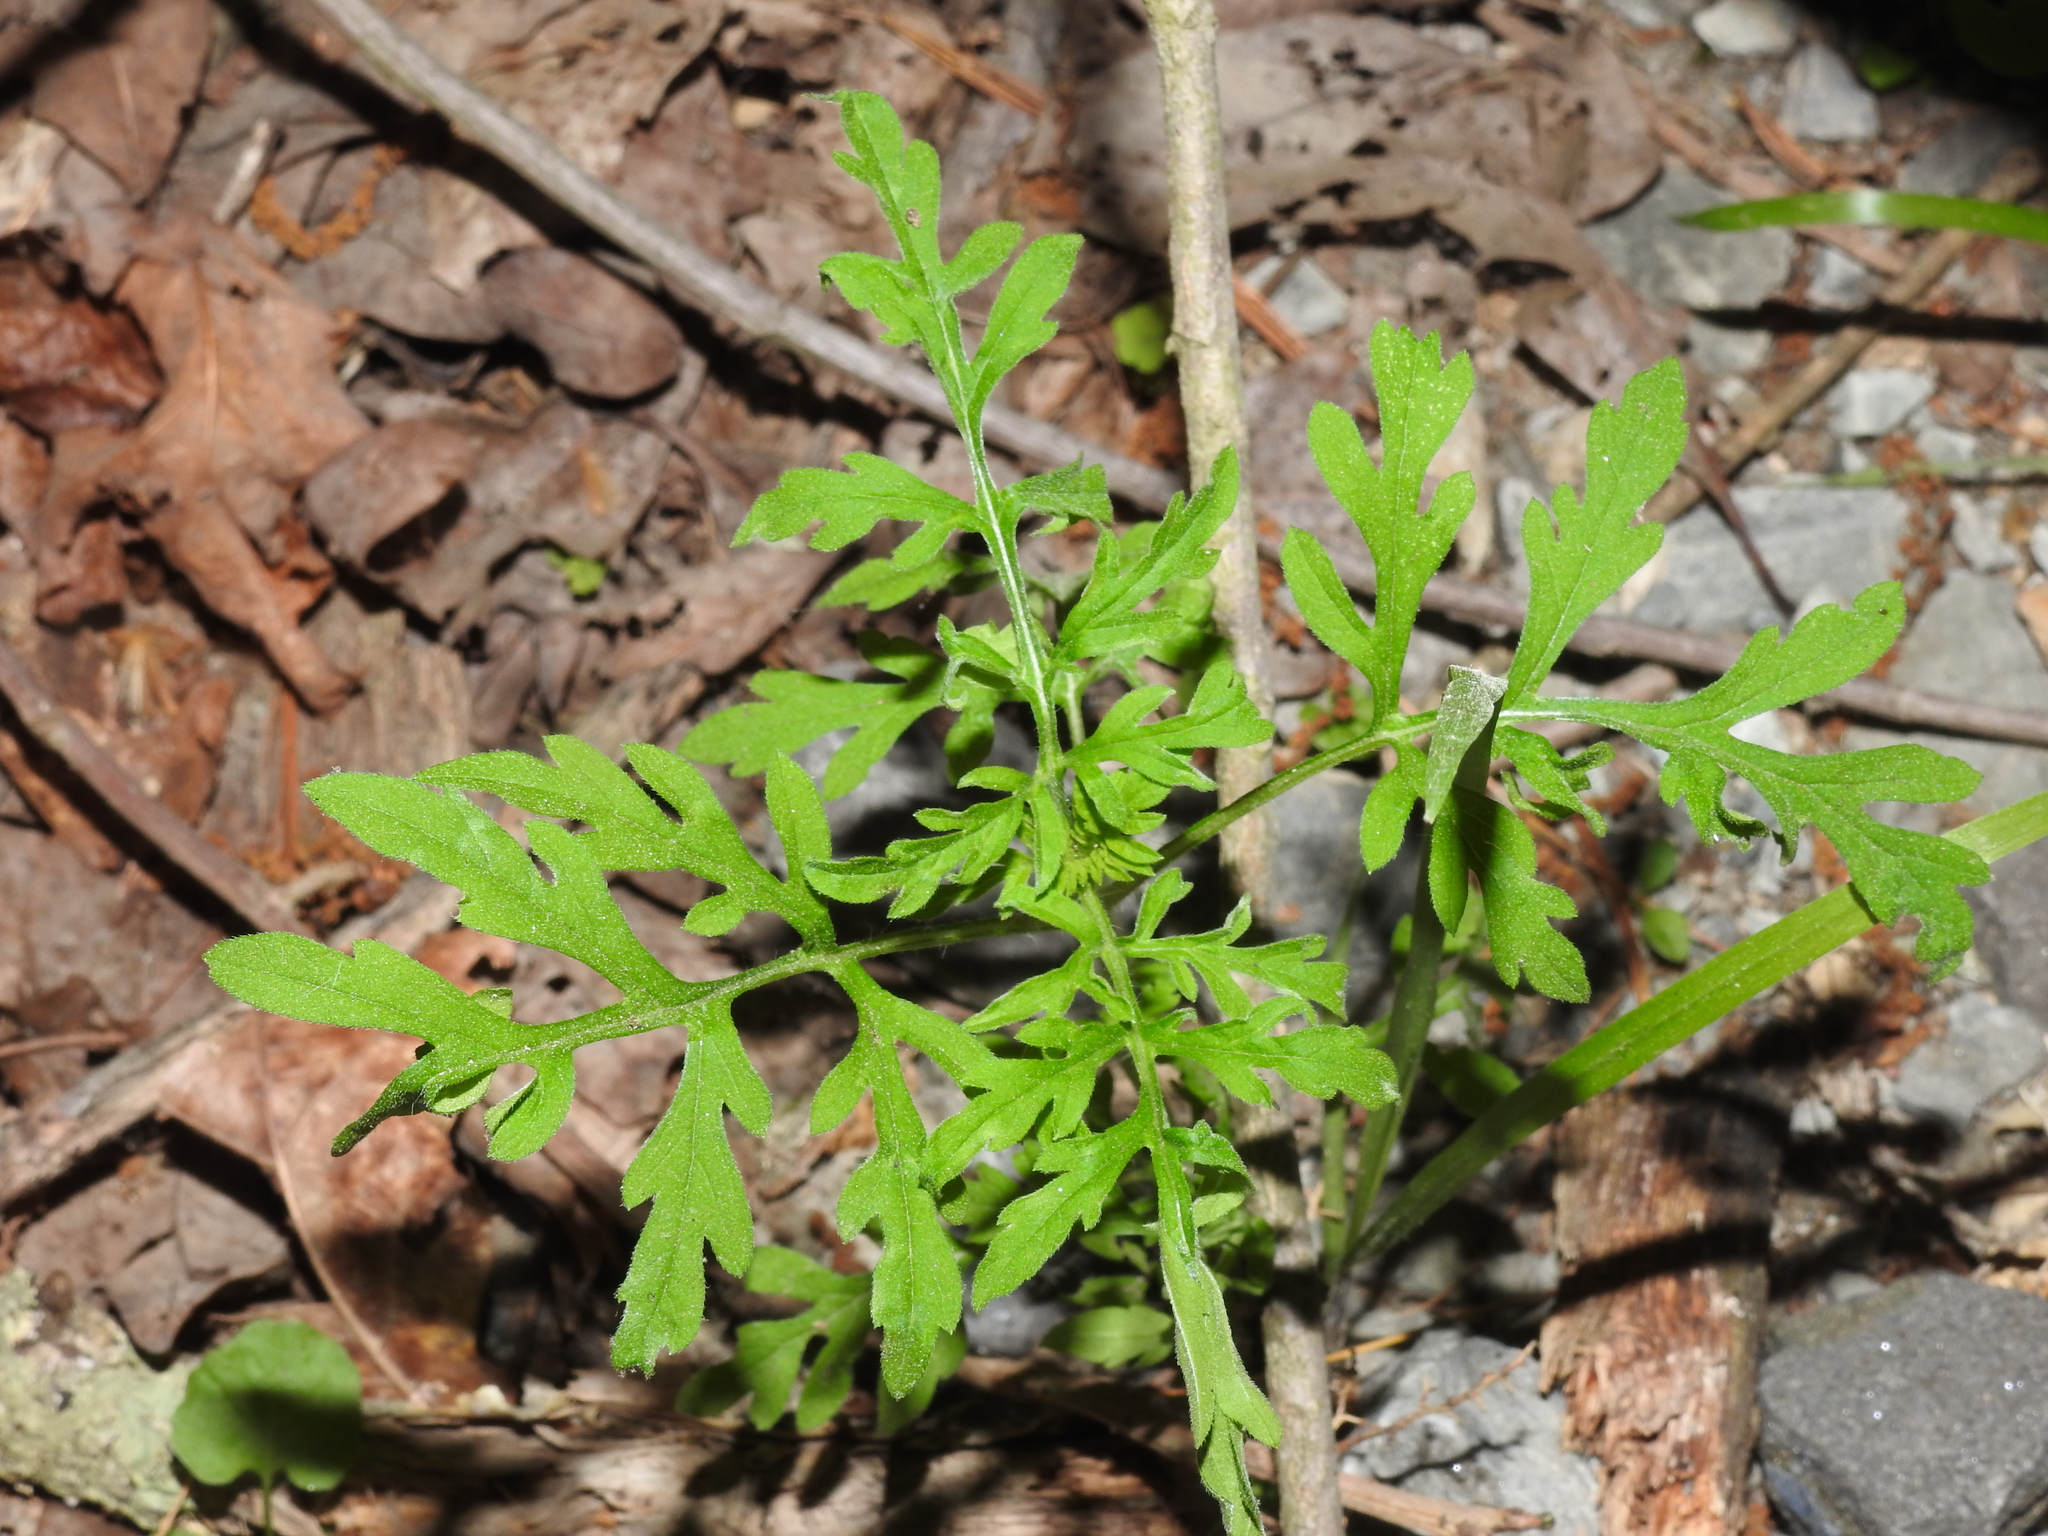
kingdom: Plantae
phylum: Tracheophyta
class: Magnoliopsida
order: Asterales
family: Asteraceae
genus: Ambrosia
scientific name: Ambrosia artemisiifolia
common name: Annual ragweed
